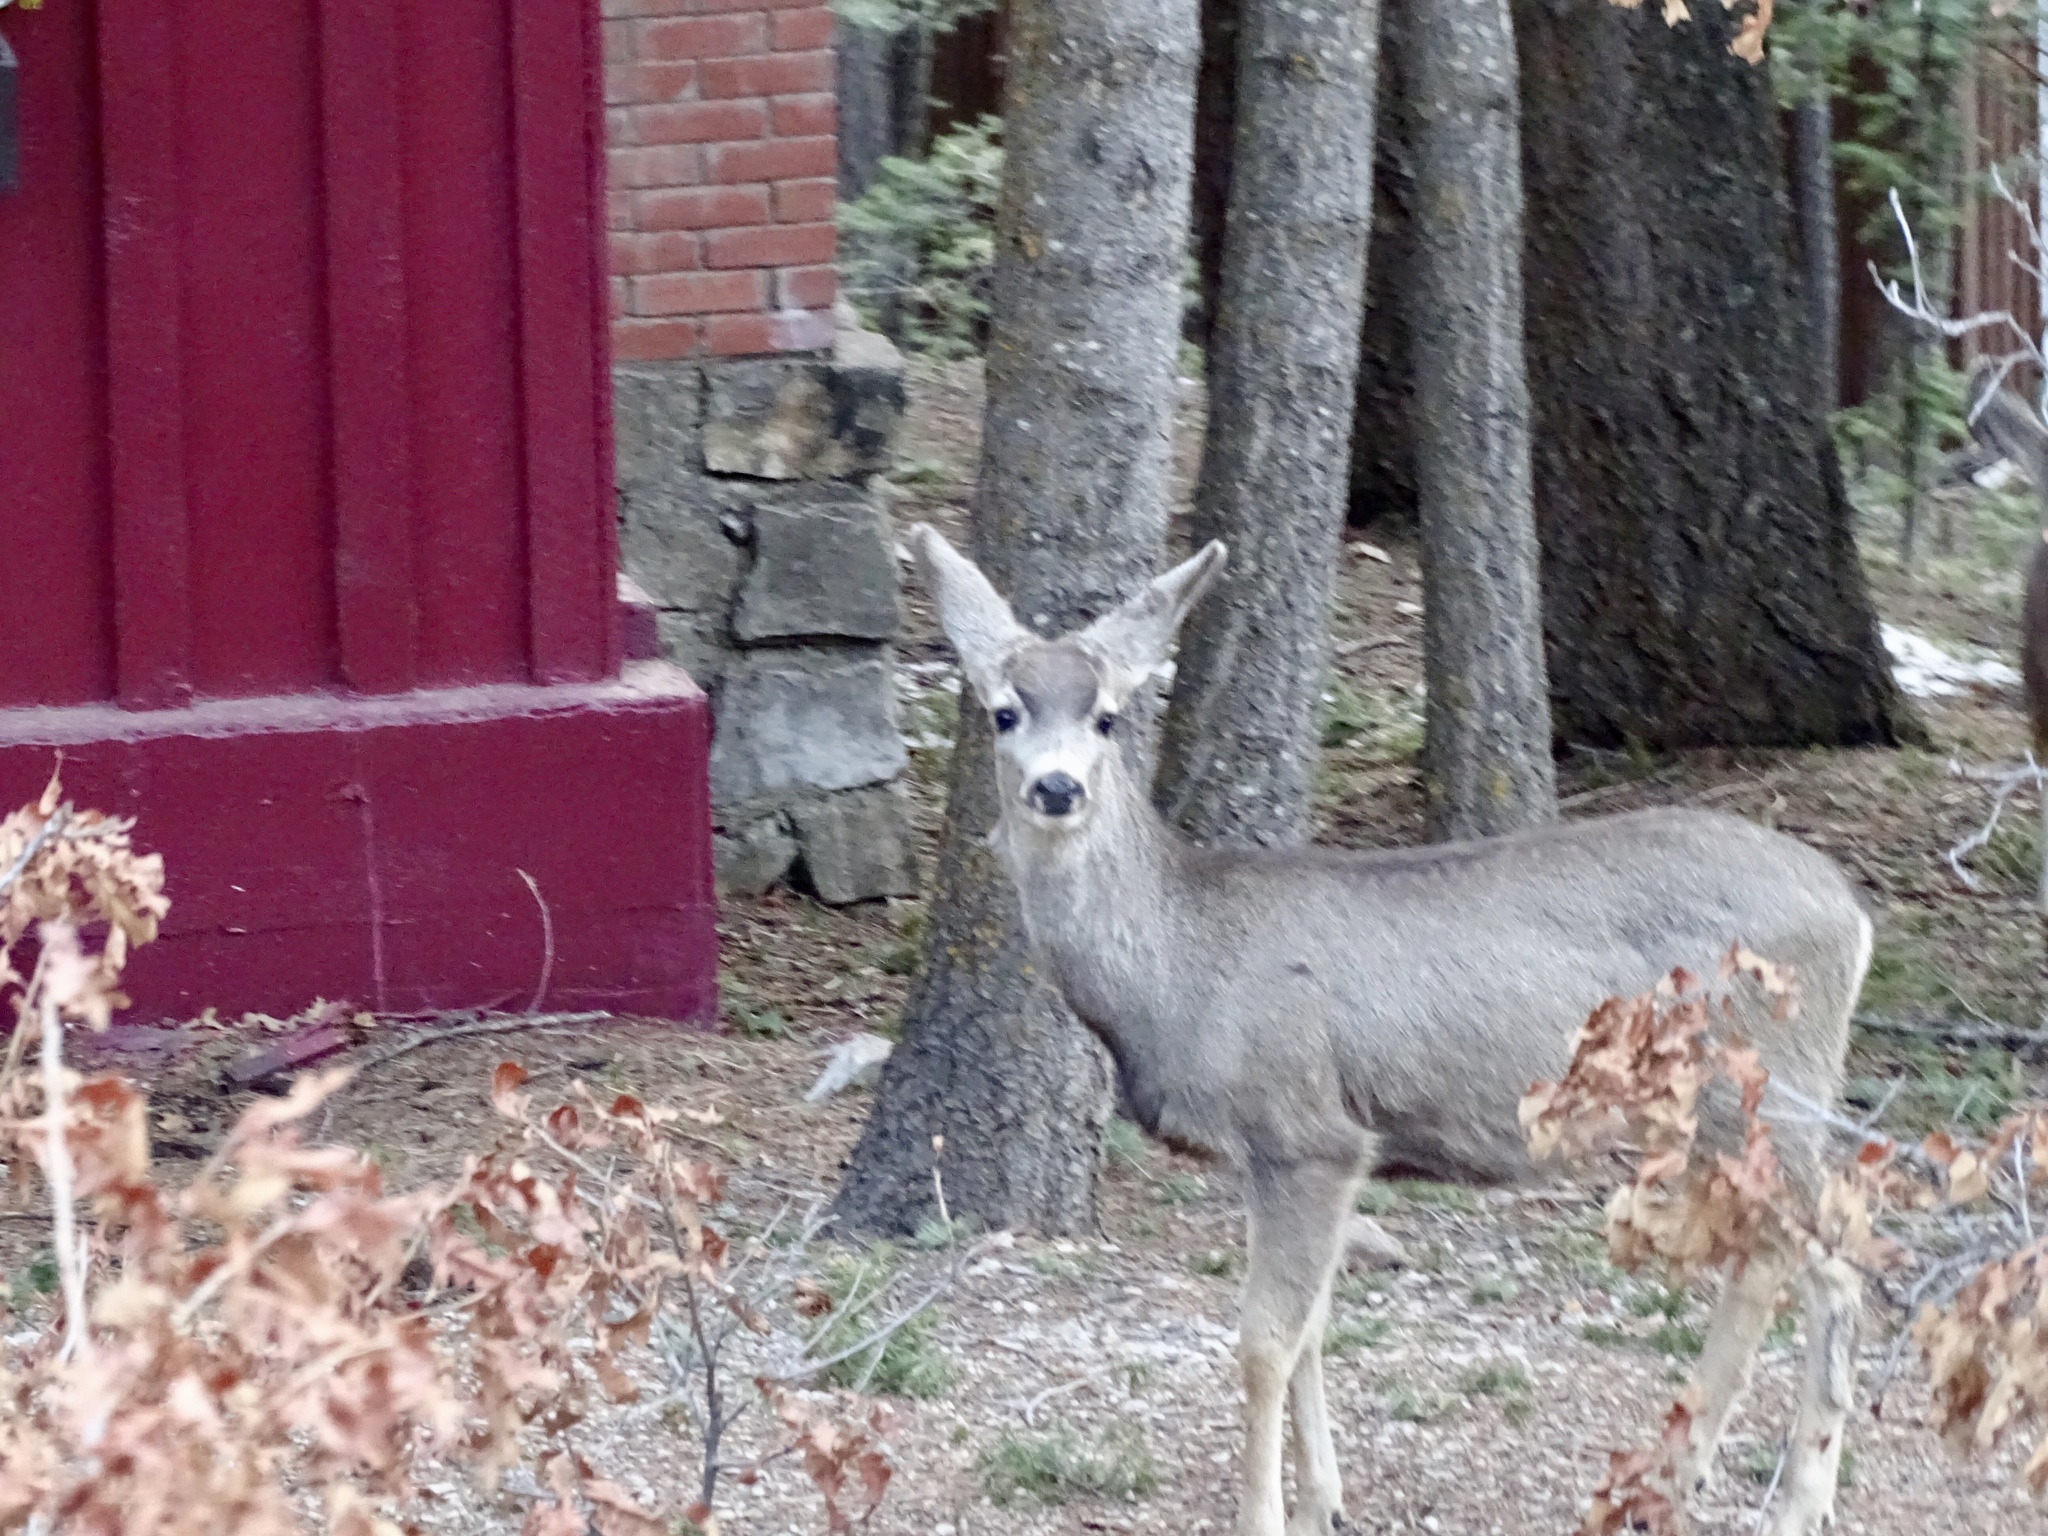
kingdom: Animalia
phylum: Chordata
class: Mammalia
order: Artiodactyla
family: Cervidae
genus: Odocoileus
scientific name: Odocoileus hemionus
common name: Mule deer
